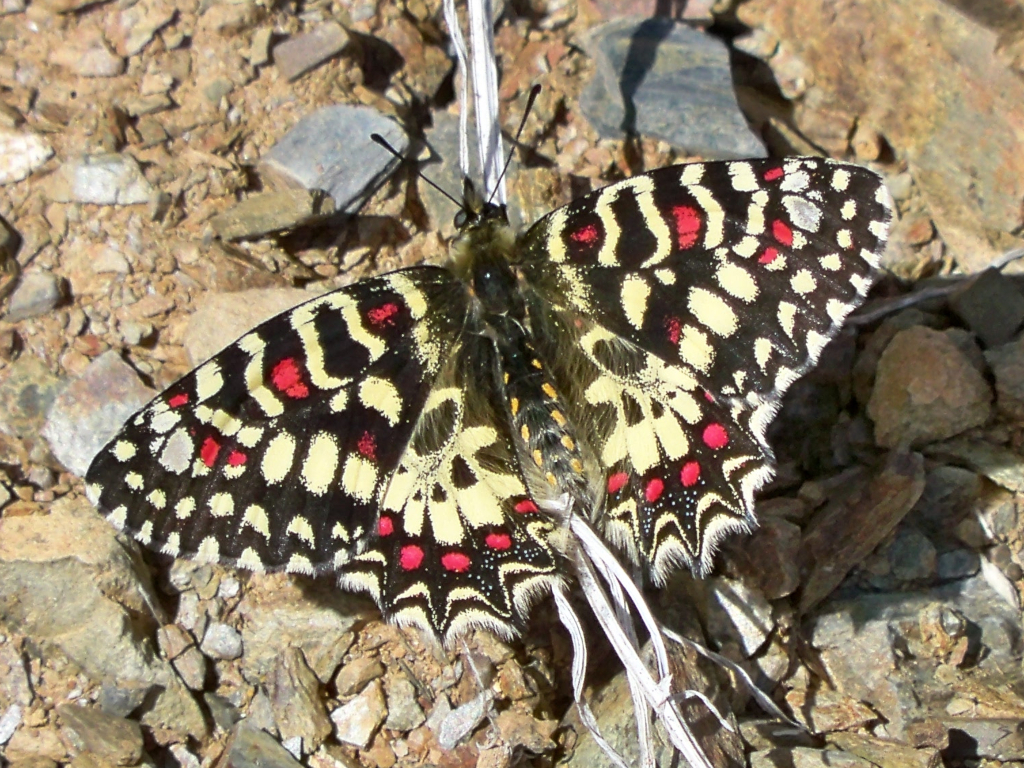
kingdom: Animalia
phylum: Arthropoda
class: Insecta
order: Lepidoptera
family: Papilionidae
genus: Zerynthia
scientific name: Zerynthia rumina
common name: Spanish festoon
